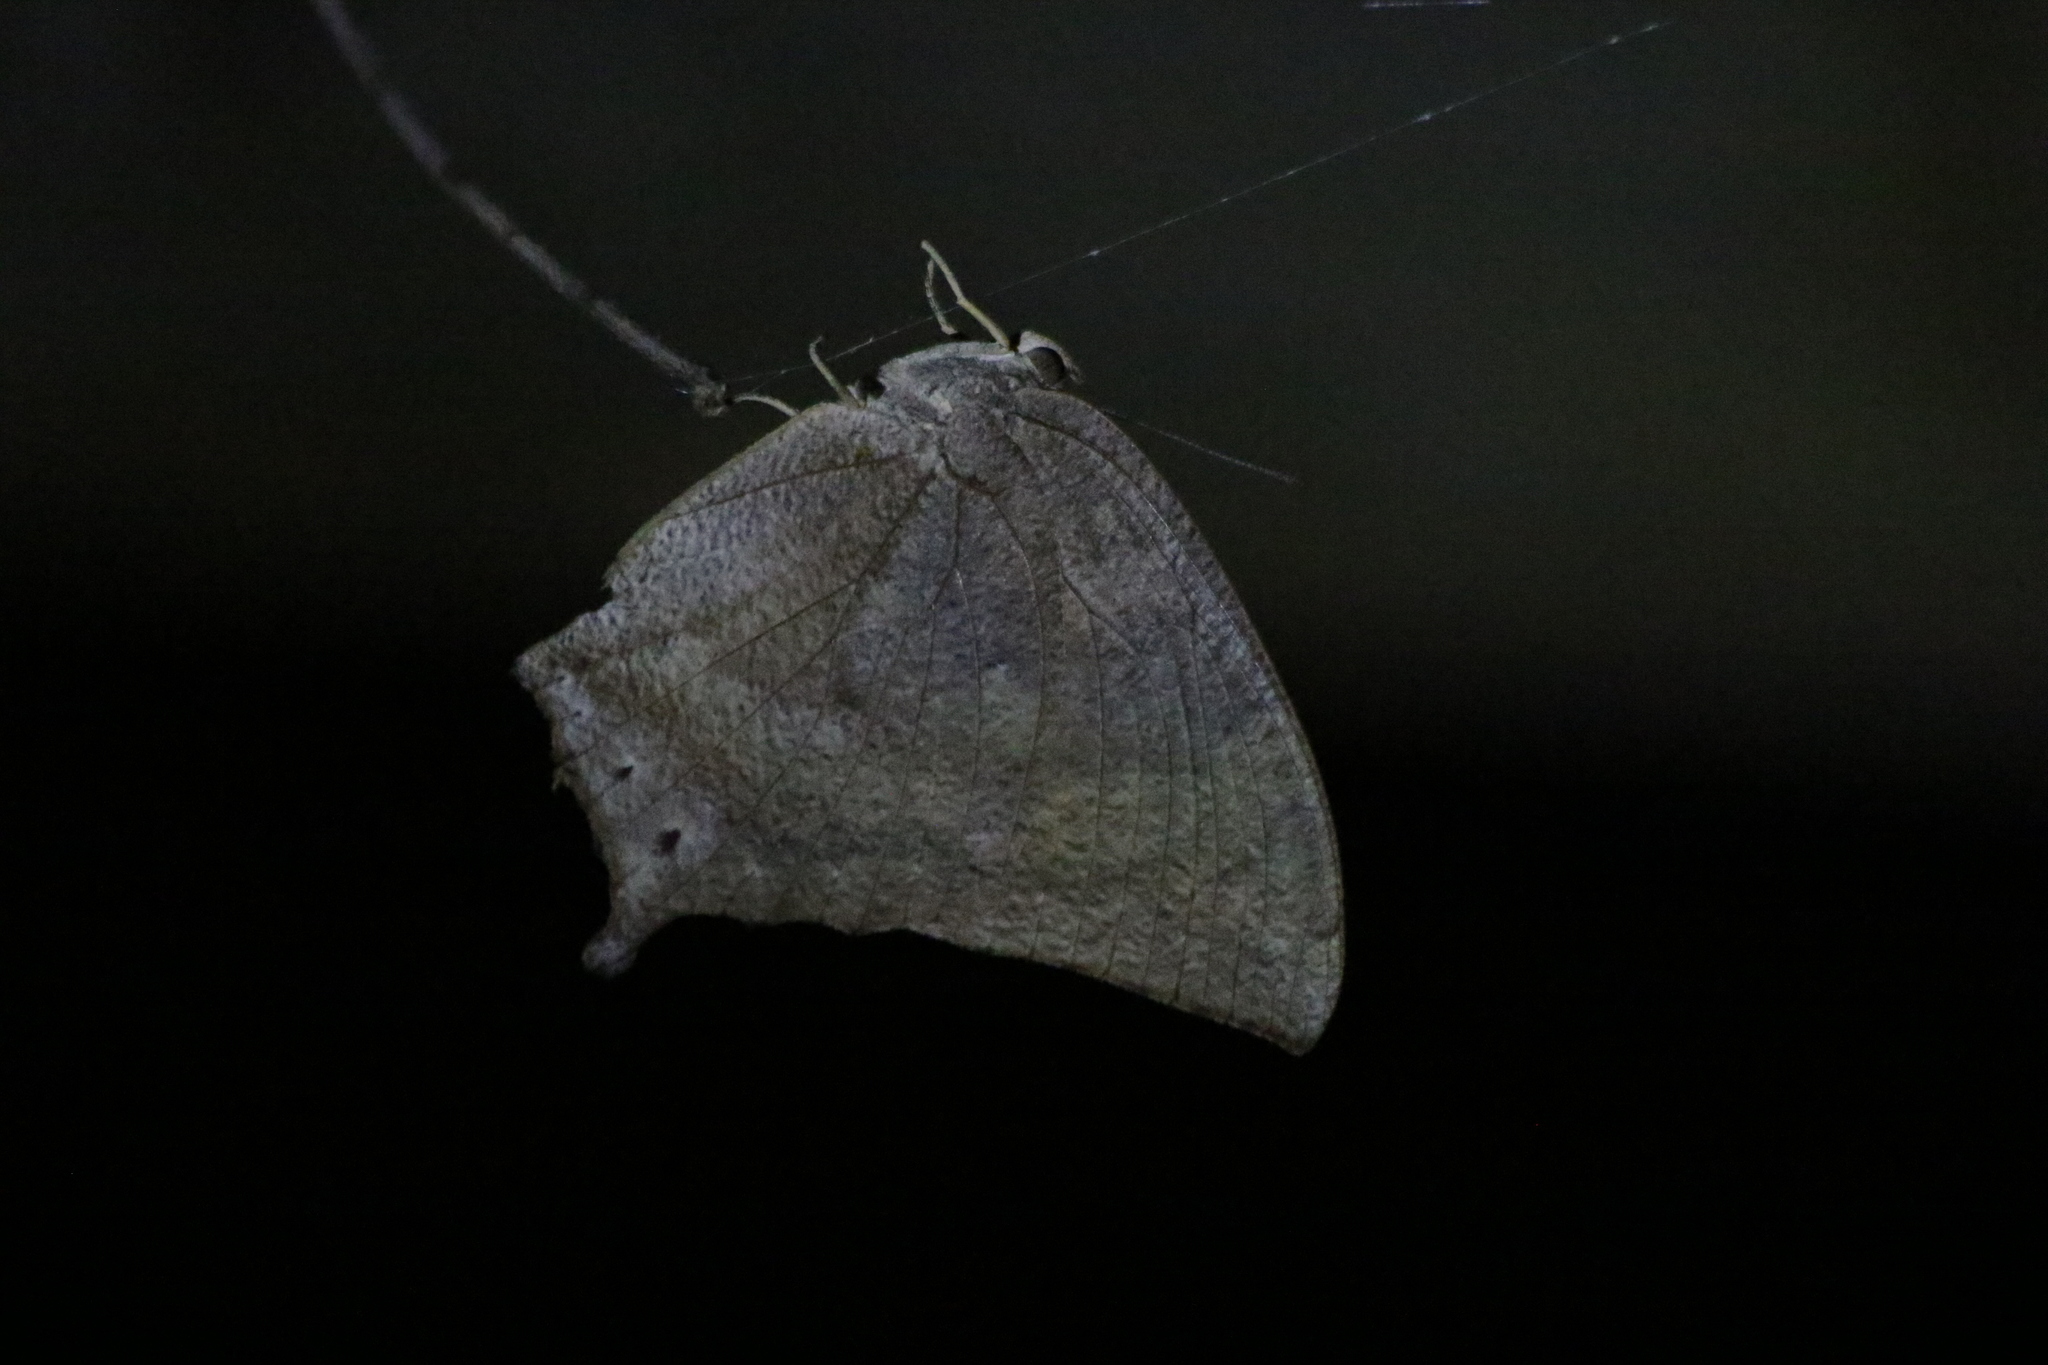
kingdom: Animalia
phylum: Arthropoda
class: Insecta
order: Lepidoptera
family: Nymphalidae
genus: Anaea
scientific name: Anaea aidea
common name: Tropical leafwing
